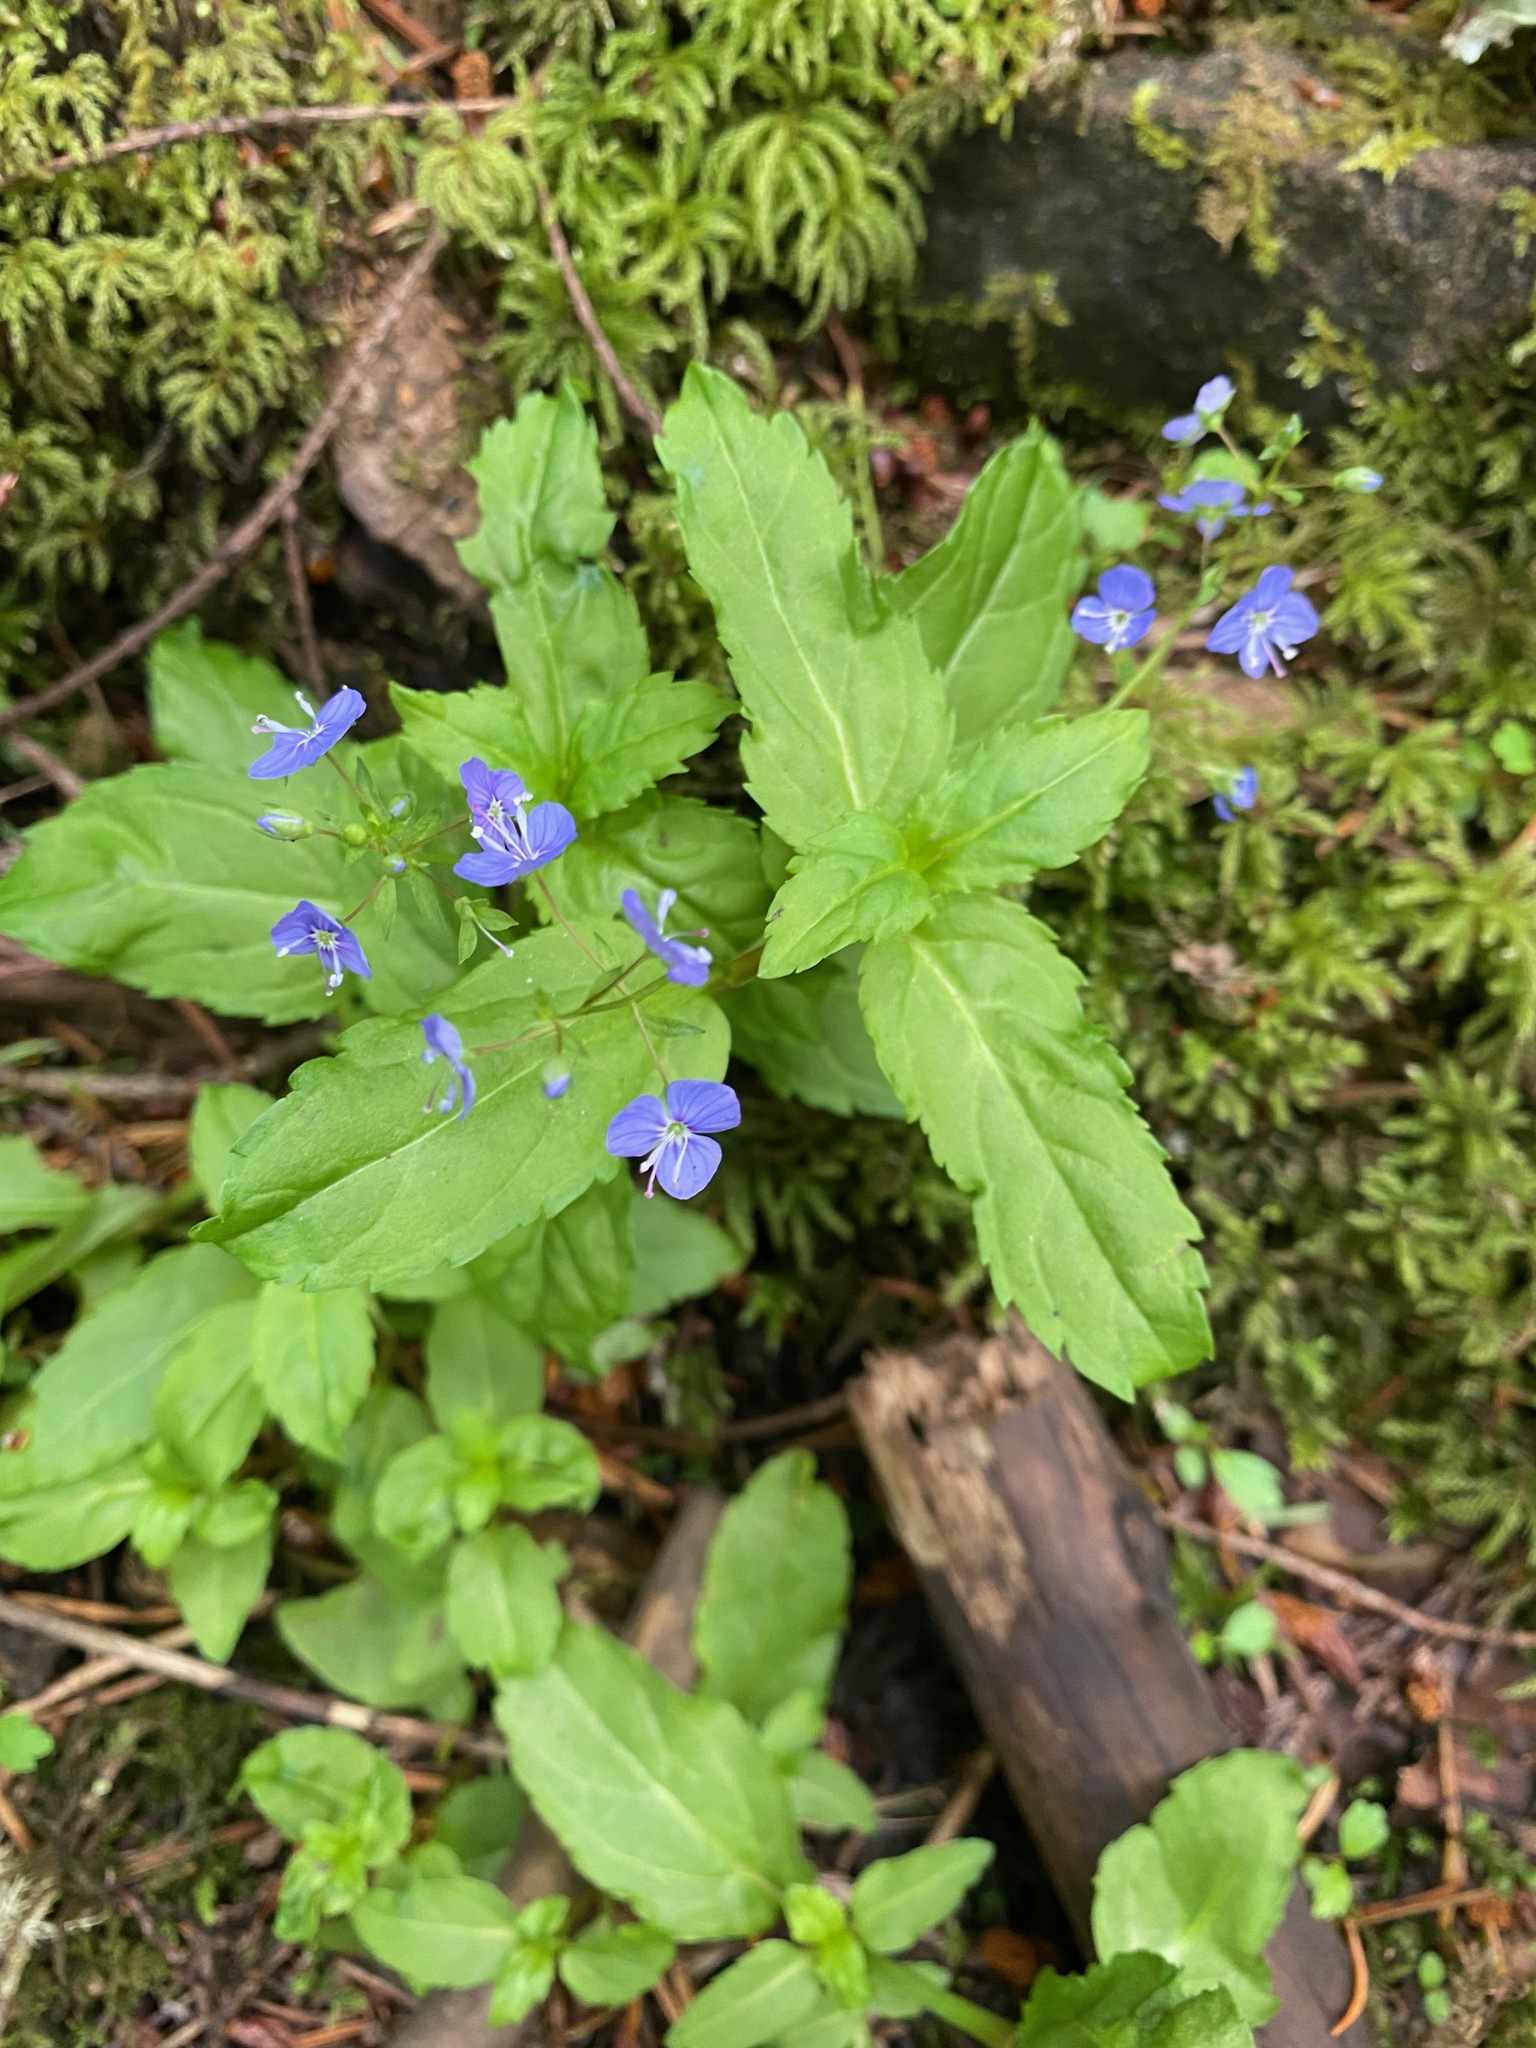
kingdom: Plantae
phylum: Tracheophyta
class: Magnoliopsida
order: Lamiales
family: Plantaginaceae
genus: Veronica
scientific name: Veronica americana
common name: American brooklime
